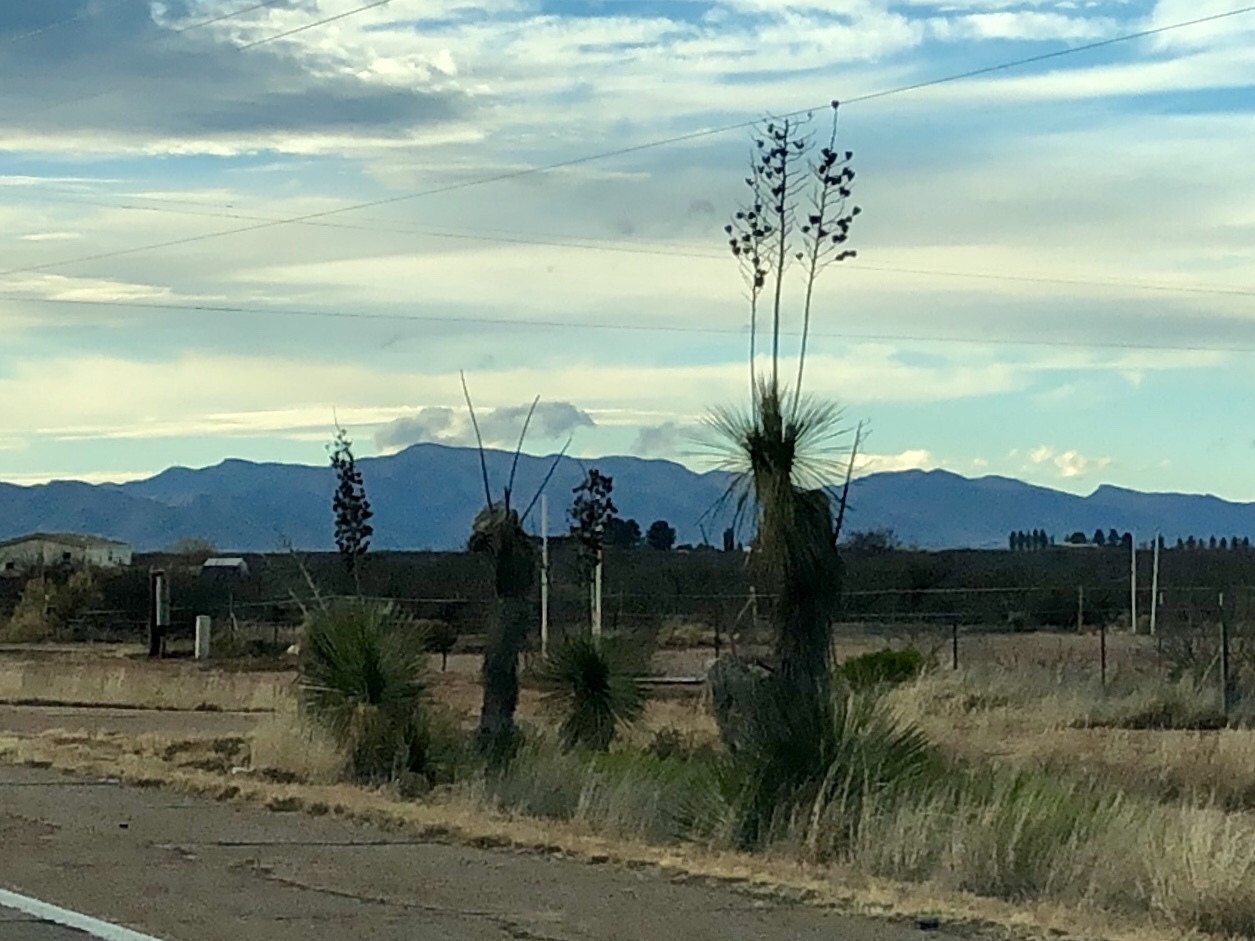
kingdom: Plantae
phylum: Tracheophyta
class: Liliopsida
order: Asparagales
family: Asparagaceae
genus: Yucca
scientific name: Yucca elata
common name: Palmella
